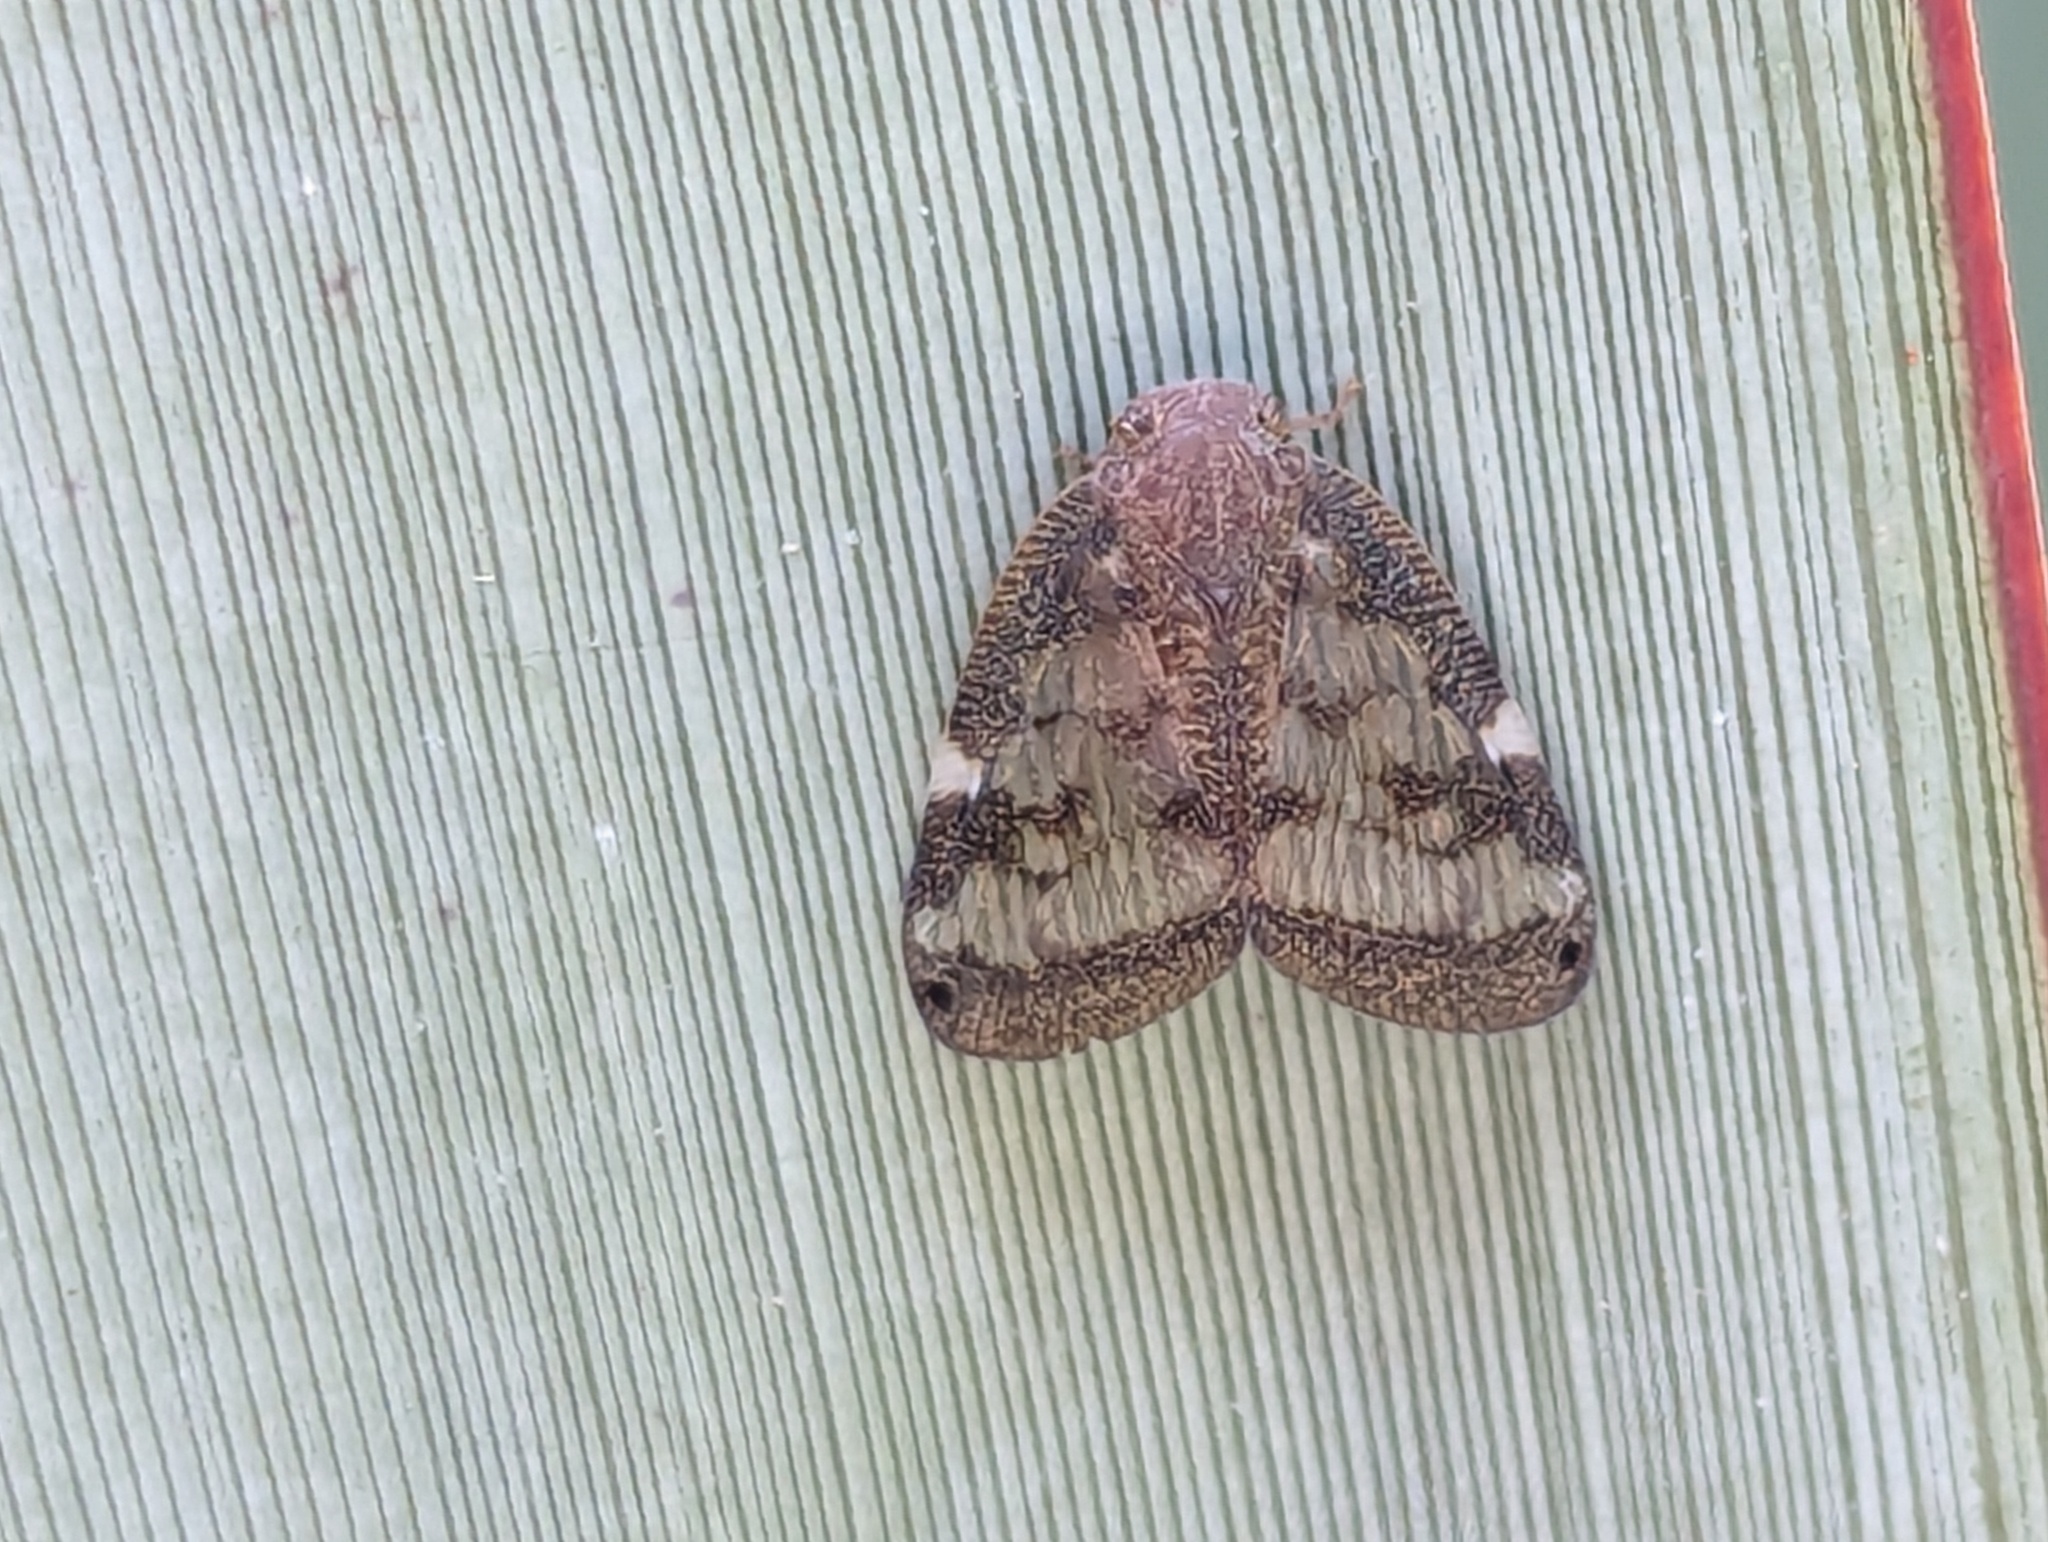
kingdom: Animalia
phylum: Arthropoda
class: Insecta
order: Hemiptera
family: Ricaniidae
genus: Scolypopa
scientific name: Scolypopa australis
